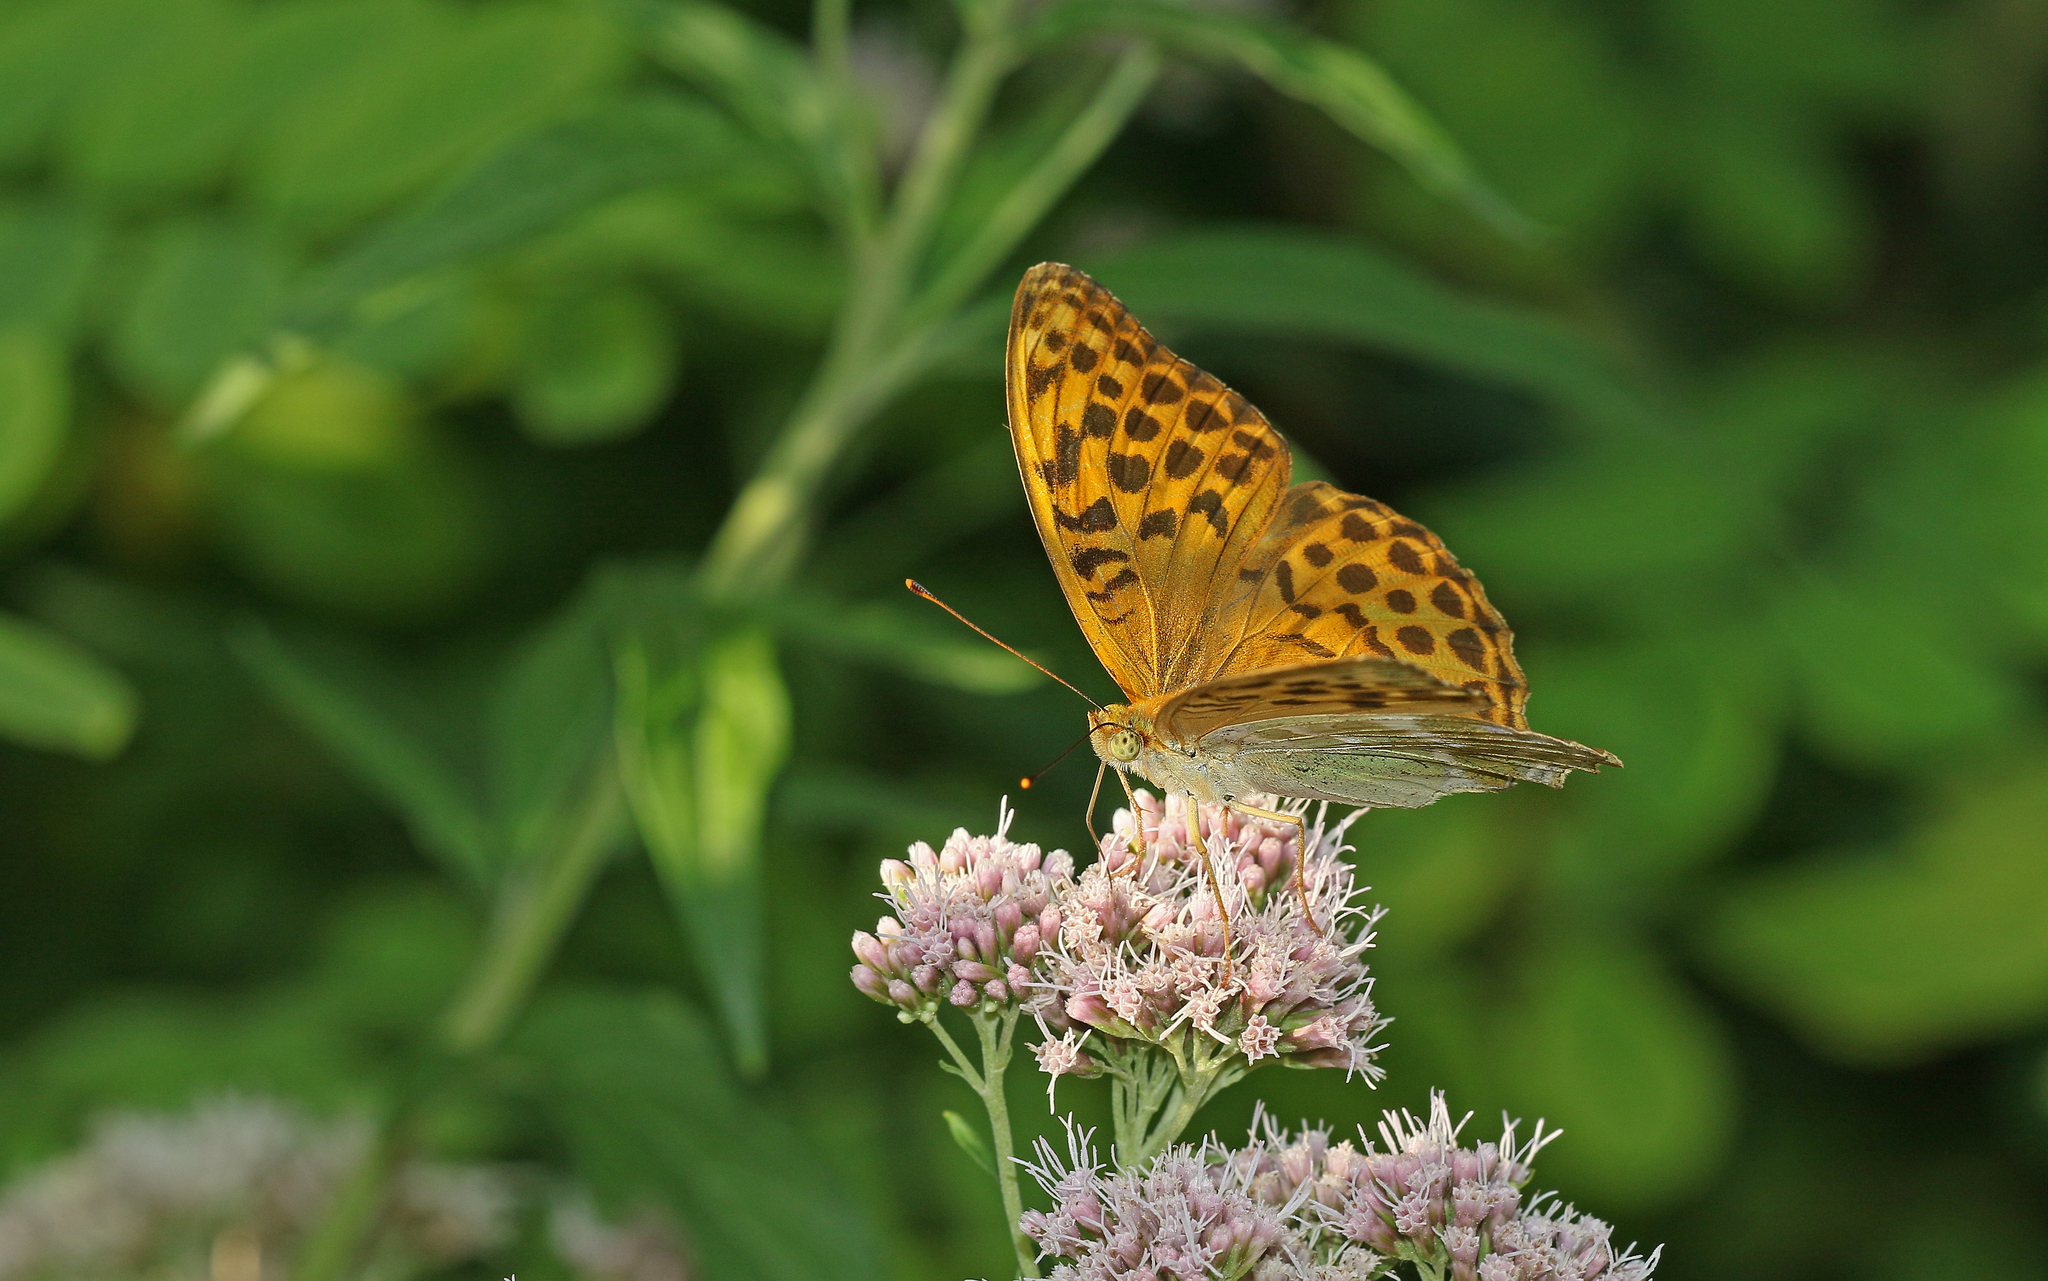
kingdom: Animalia
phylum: Arthropoda
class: Insecta
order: Lepidoptera
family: Nymphalidae
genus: Argynnis
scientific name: Argynnis paphia
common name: Silver-washed fritillary
